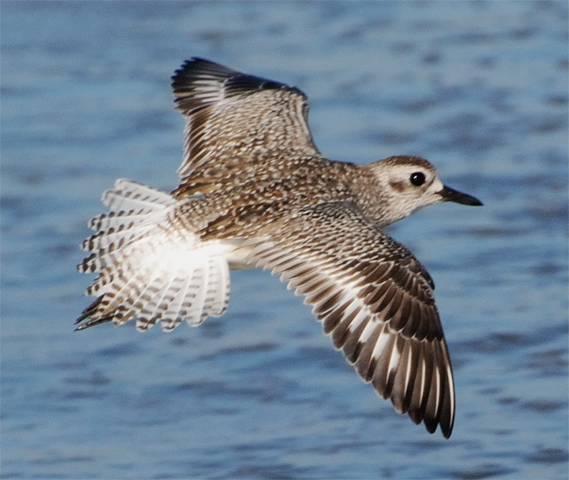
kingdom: Animalia
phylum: Chordata
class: Aves
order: Charadriiformes
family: Charadriidae
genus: Pluvialis
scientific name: Pluvialis squatarola
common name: Grey plover
